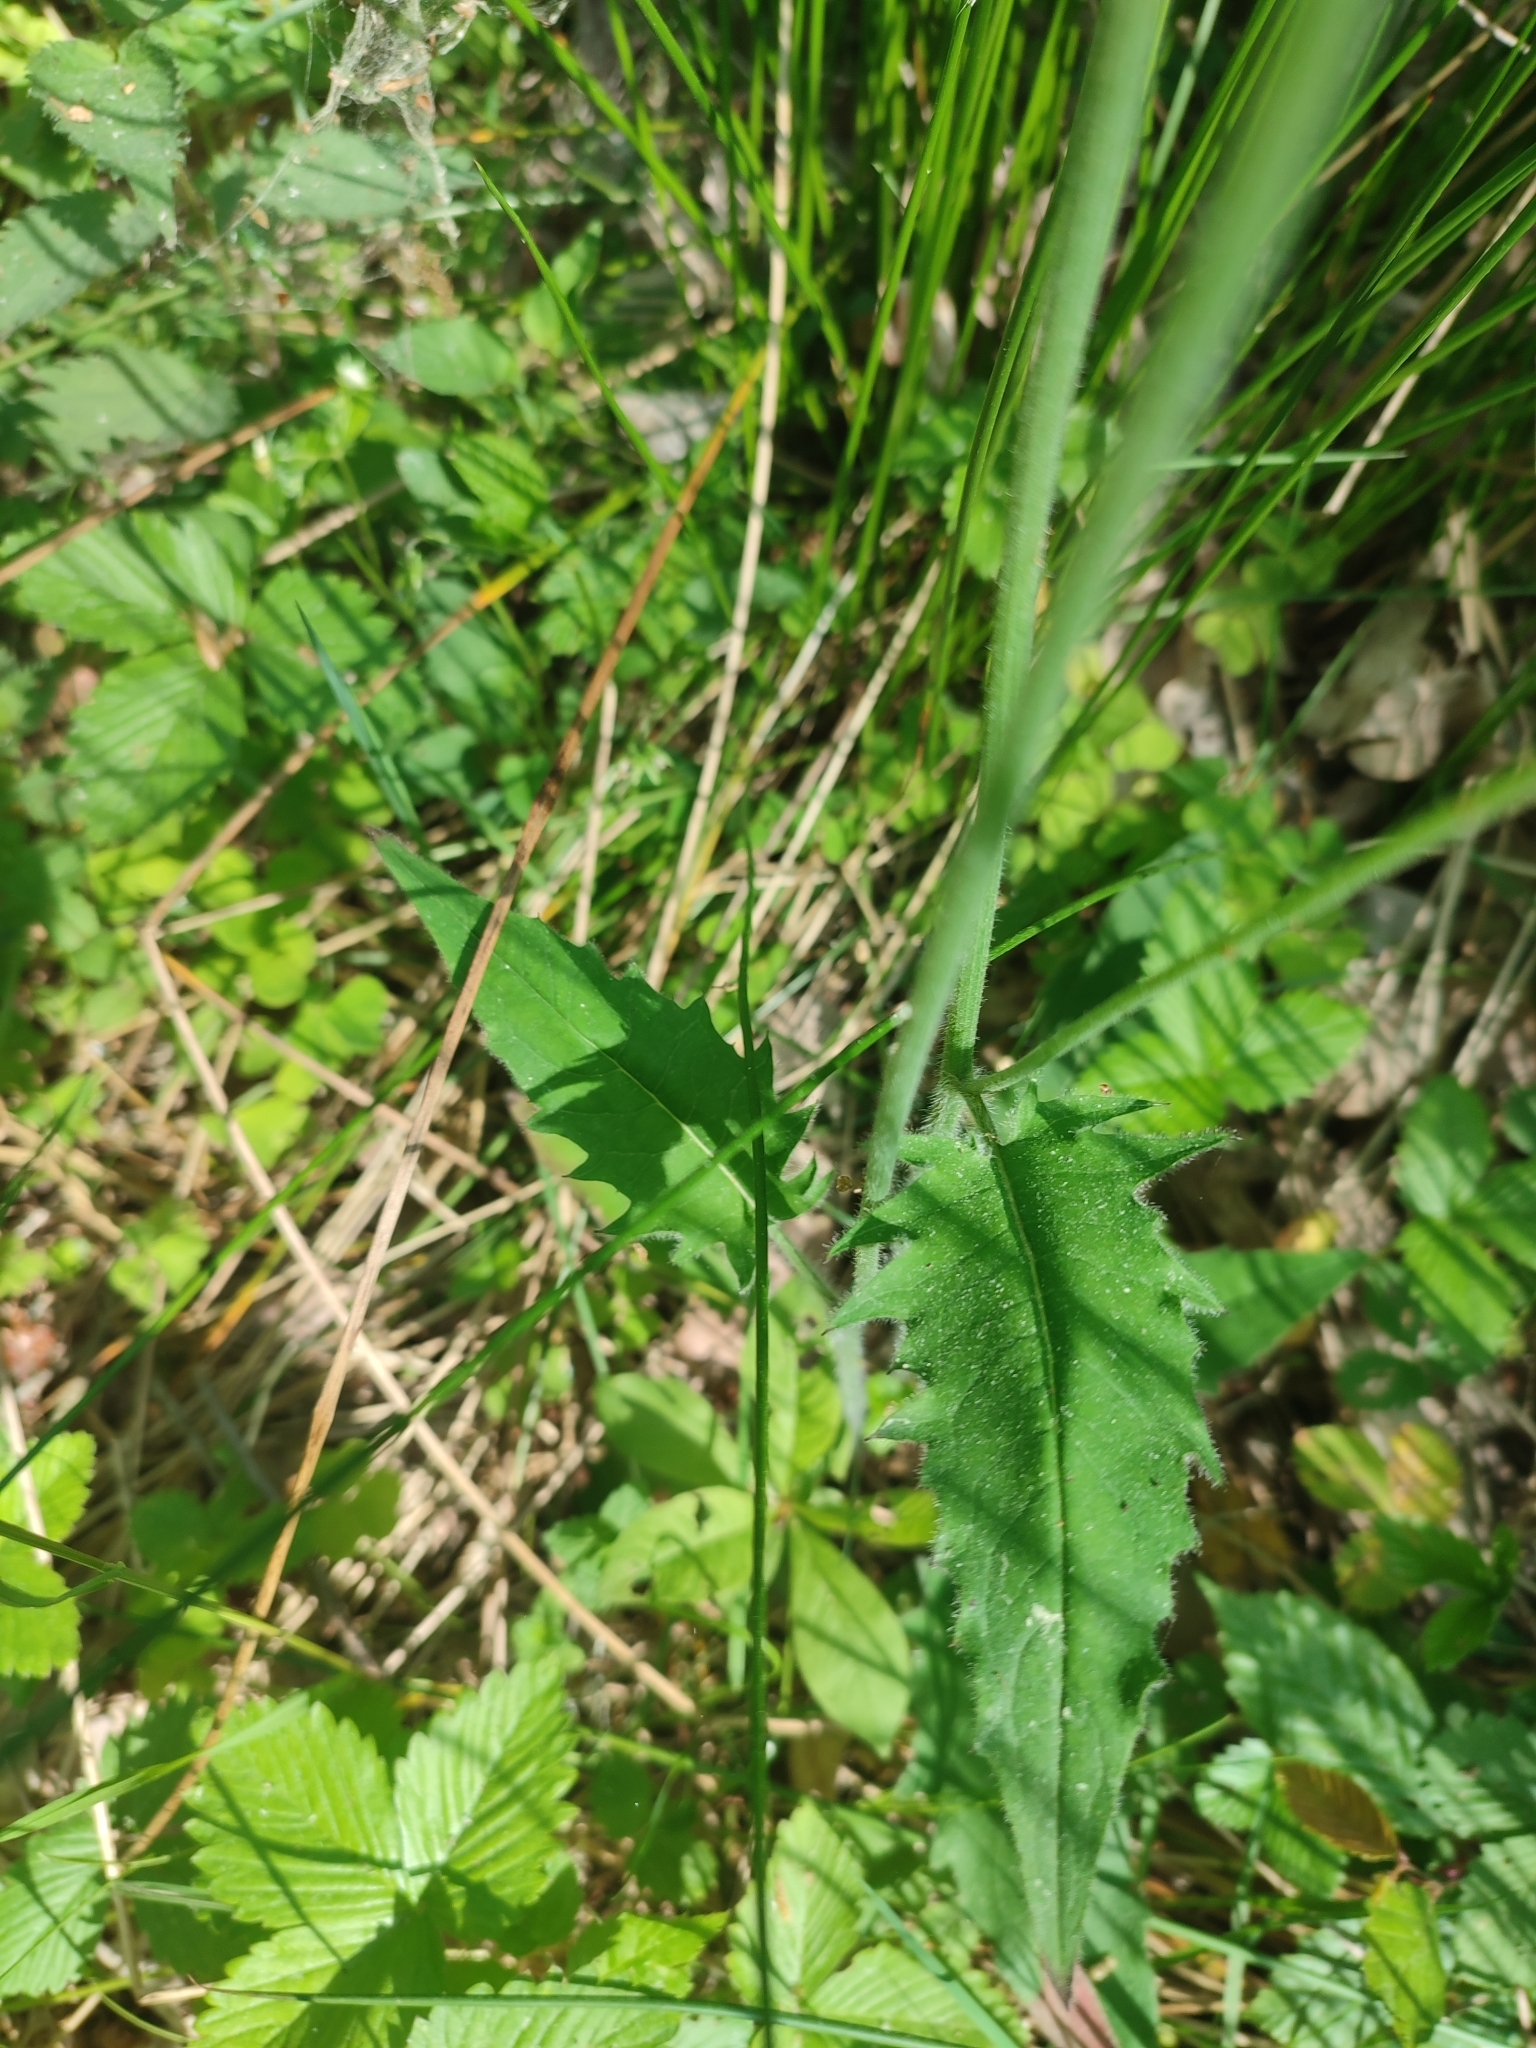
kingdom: Plantae
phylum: Tracheophyta
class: Magnoliopsida
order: Asterales
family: Asteraceae
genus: Hieracium
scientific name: Hieracium murorum
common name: Wall hawkweed
